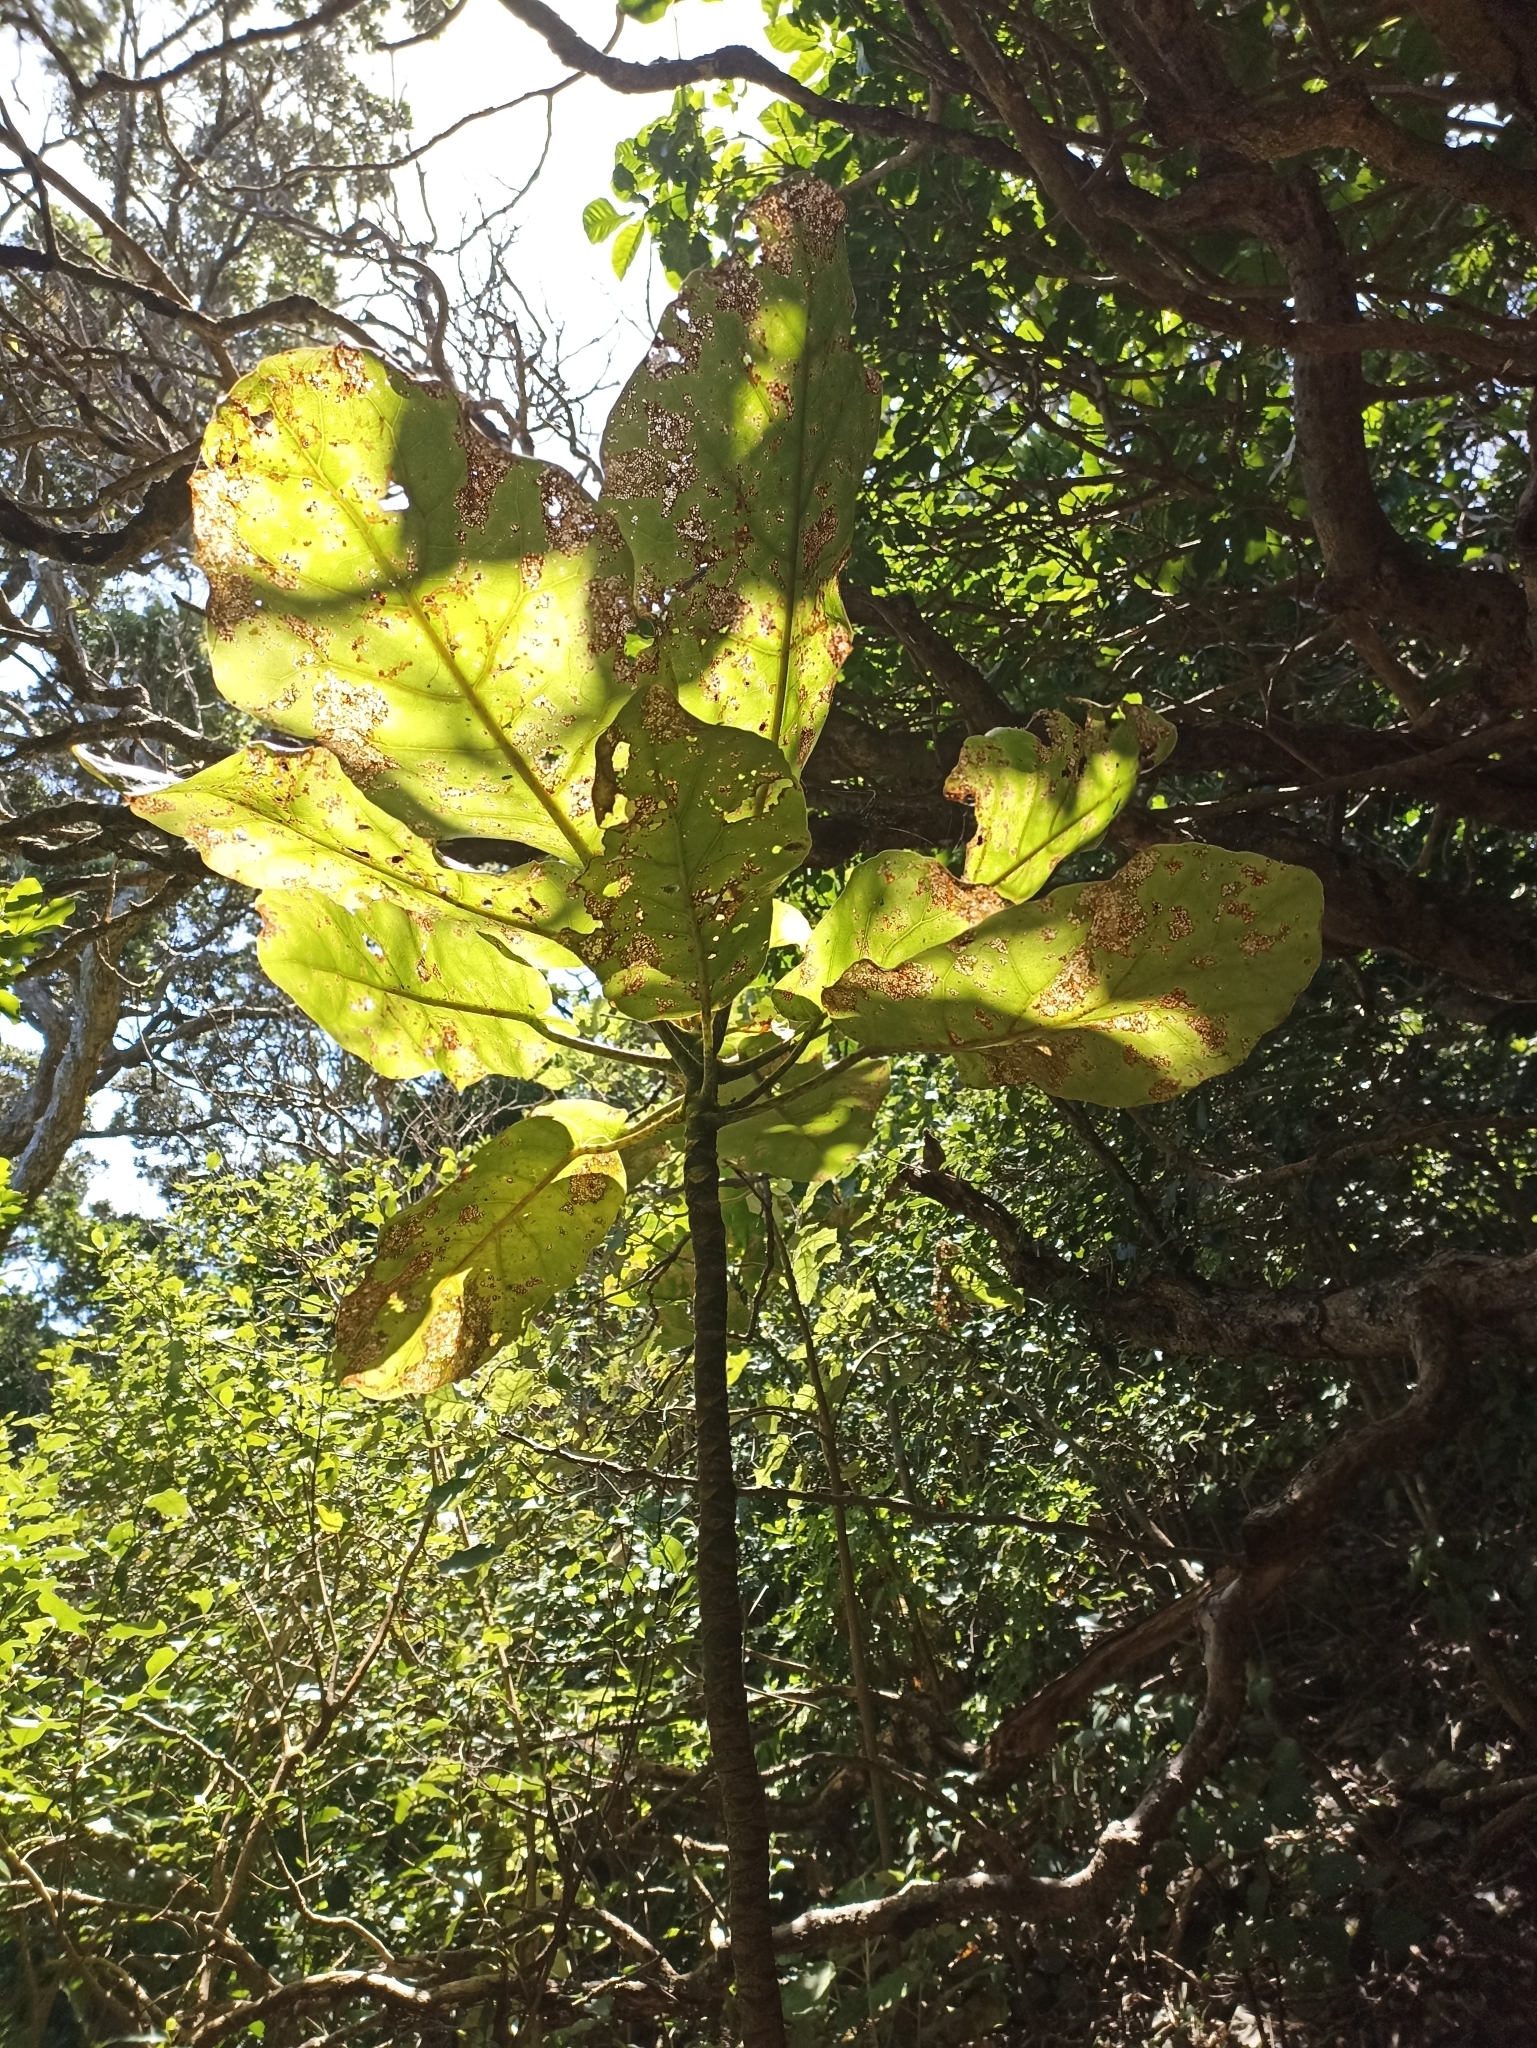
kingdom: Plantae
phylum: Tracheophyta
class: Magnoliopsida
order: Apiales
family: Araliaceae
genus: Meryta
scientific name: Meryta sinclairii
